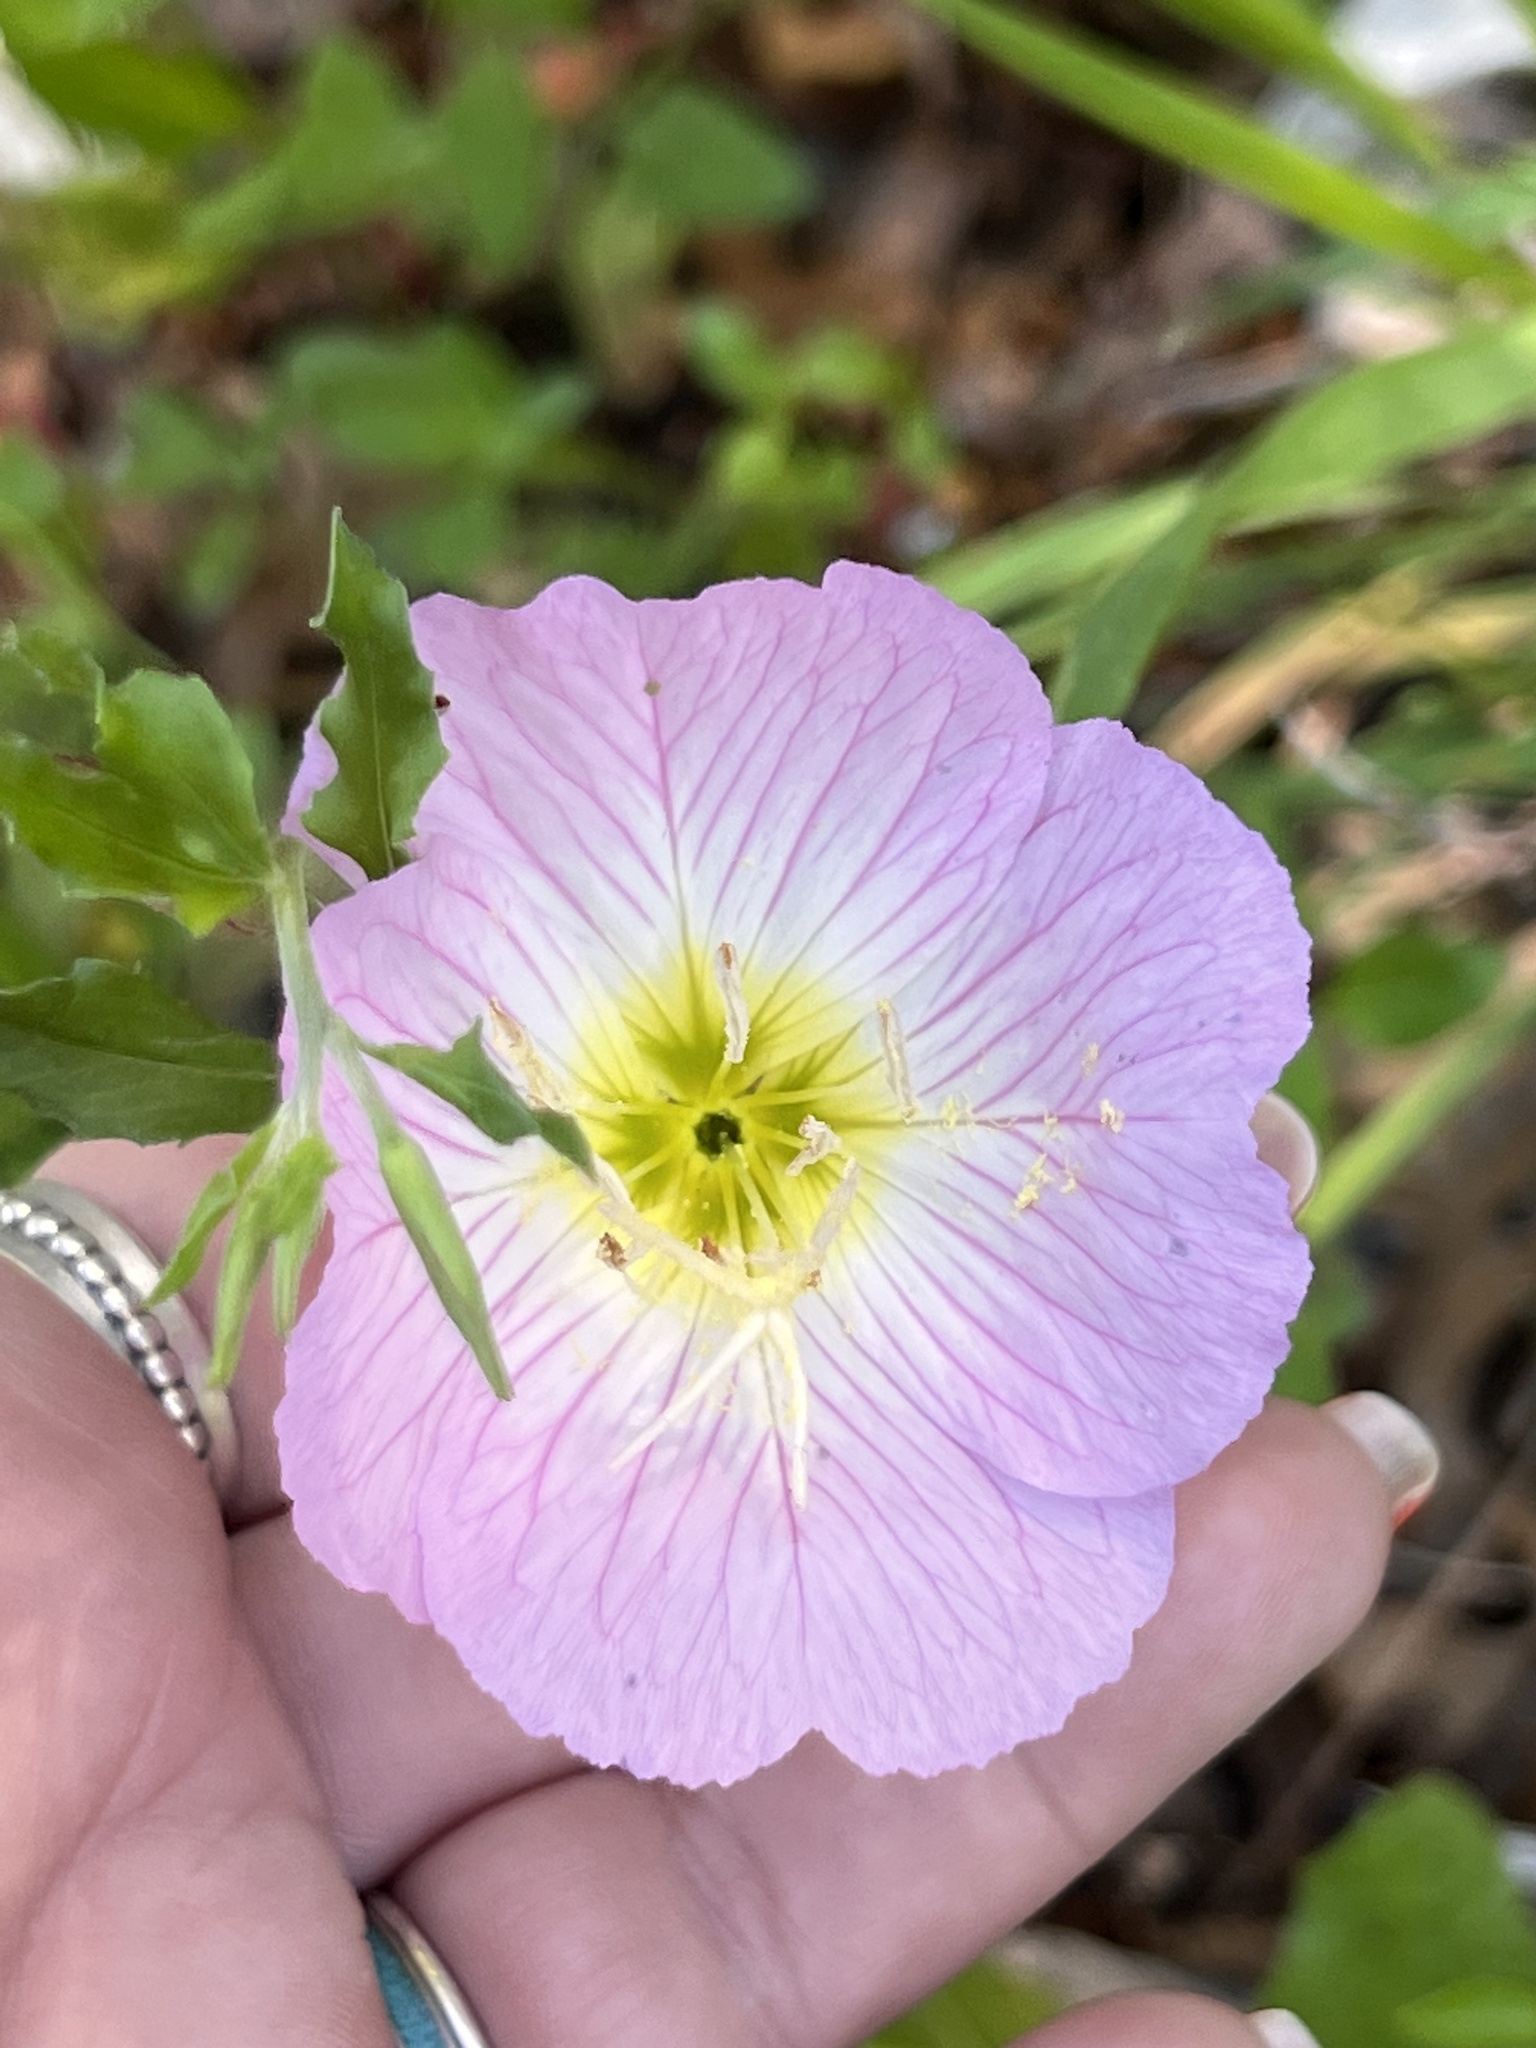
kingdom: Plantae
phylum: Tracheophyta
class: Magnoliopsida
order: Myrtales
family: Onagraceae
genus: Oenothera
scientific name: Oenothera speciosa
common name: White evening-primrose
